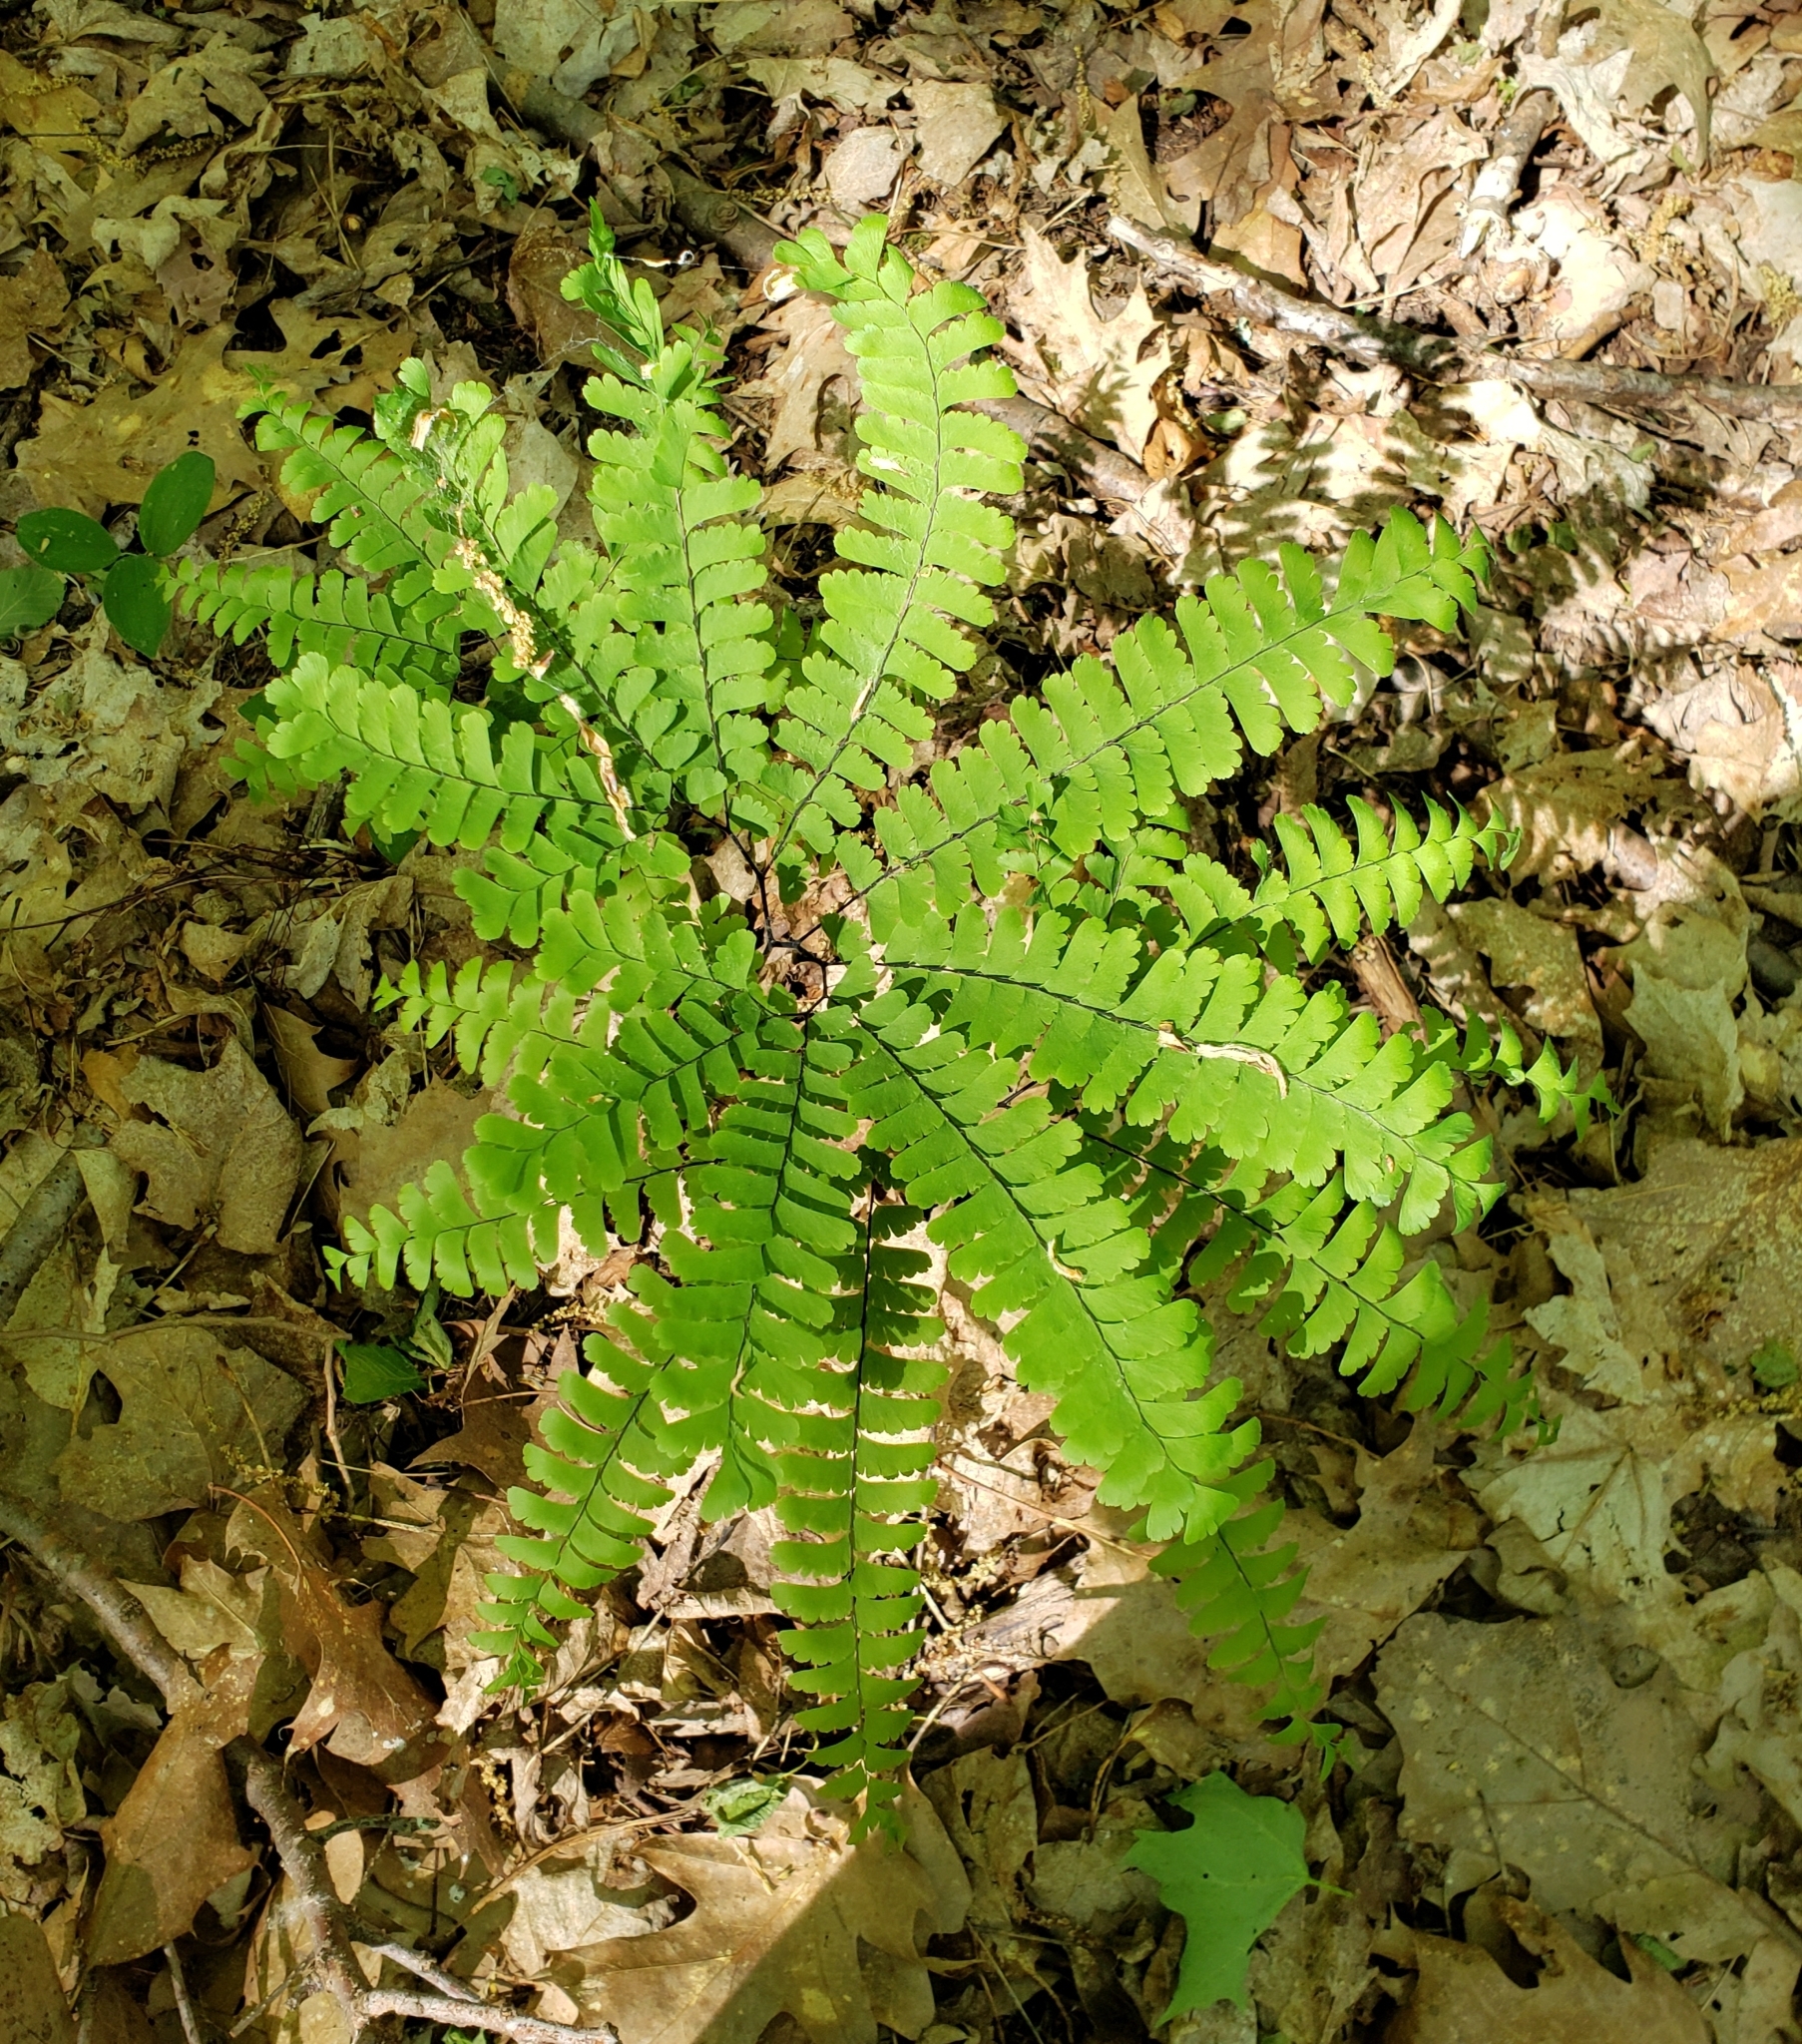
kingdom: Plantae
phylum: Tracheophyta
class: Polypodiopsida
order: Polypodiales
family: Pteridaceae
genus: Adiantum
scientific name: Adiantum pedatum
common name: Five-finger fern
